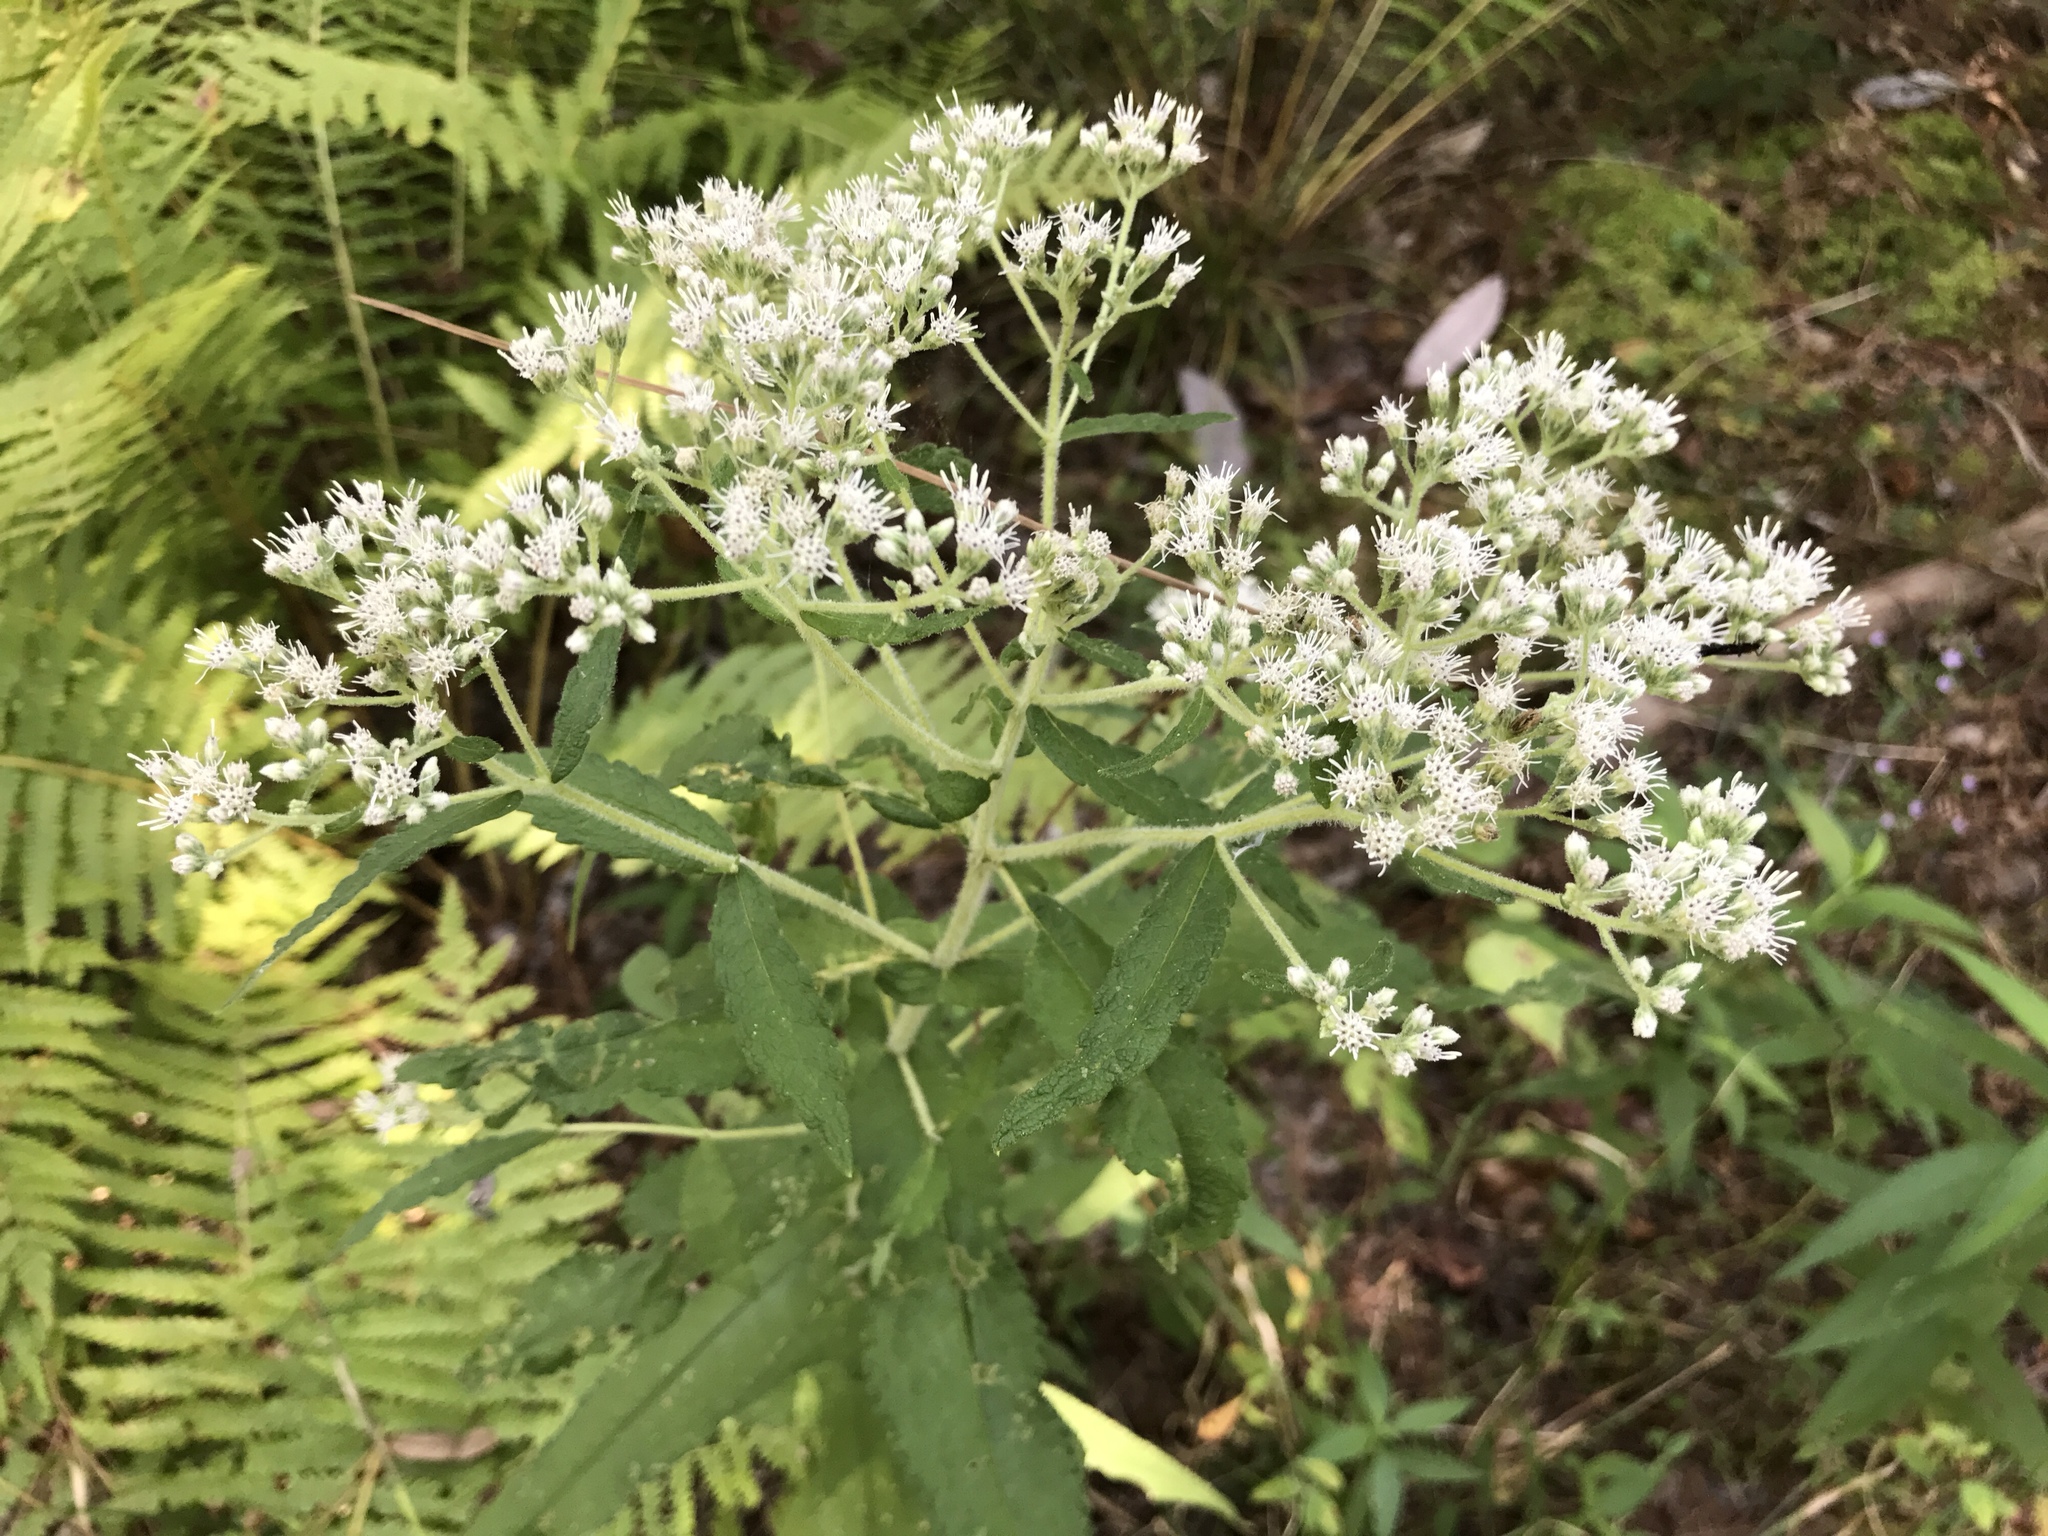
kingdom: Plantae
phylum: Tracheophyta
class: Magnoliopsida
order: Asterales
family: Asteraceae
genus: Eupatorium
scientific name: Eupatorium perfoliatum
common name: Boneset
